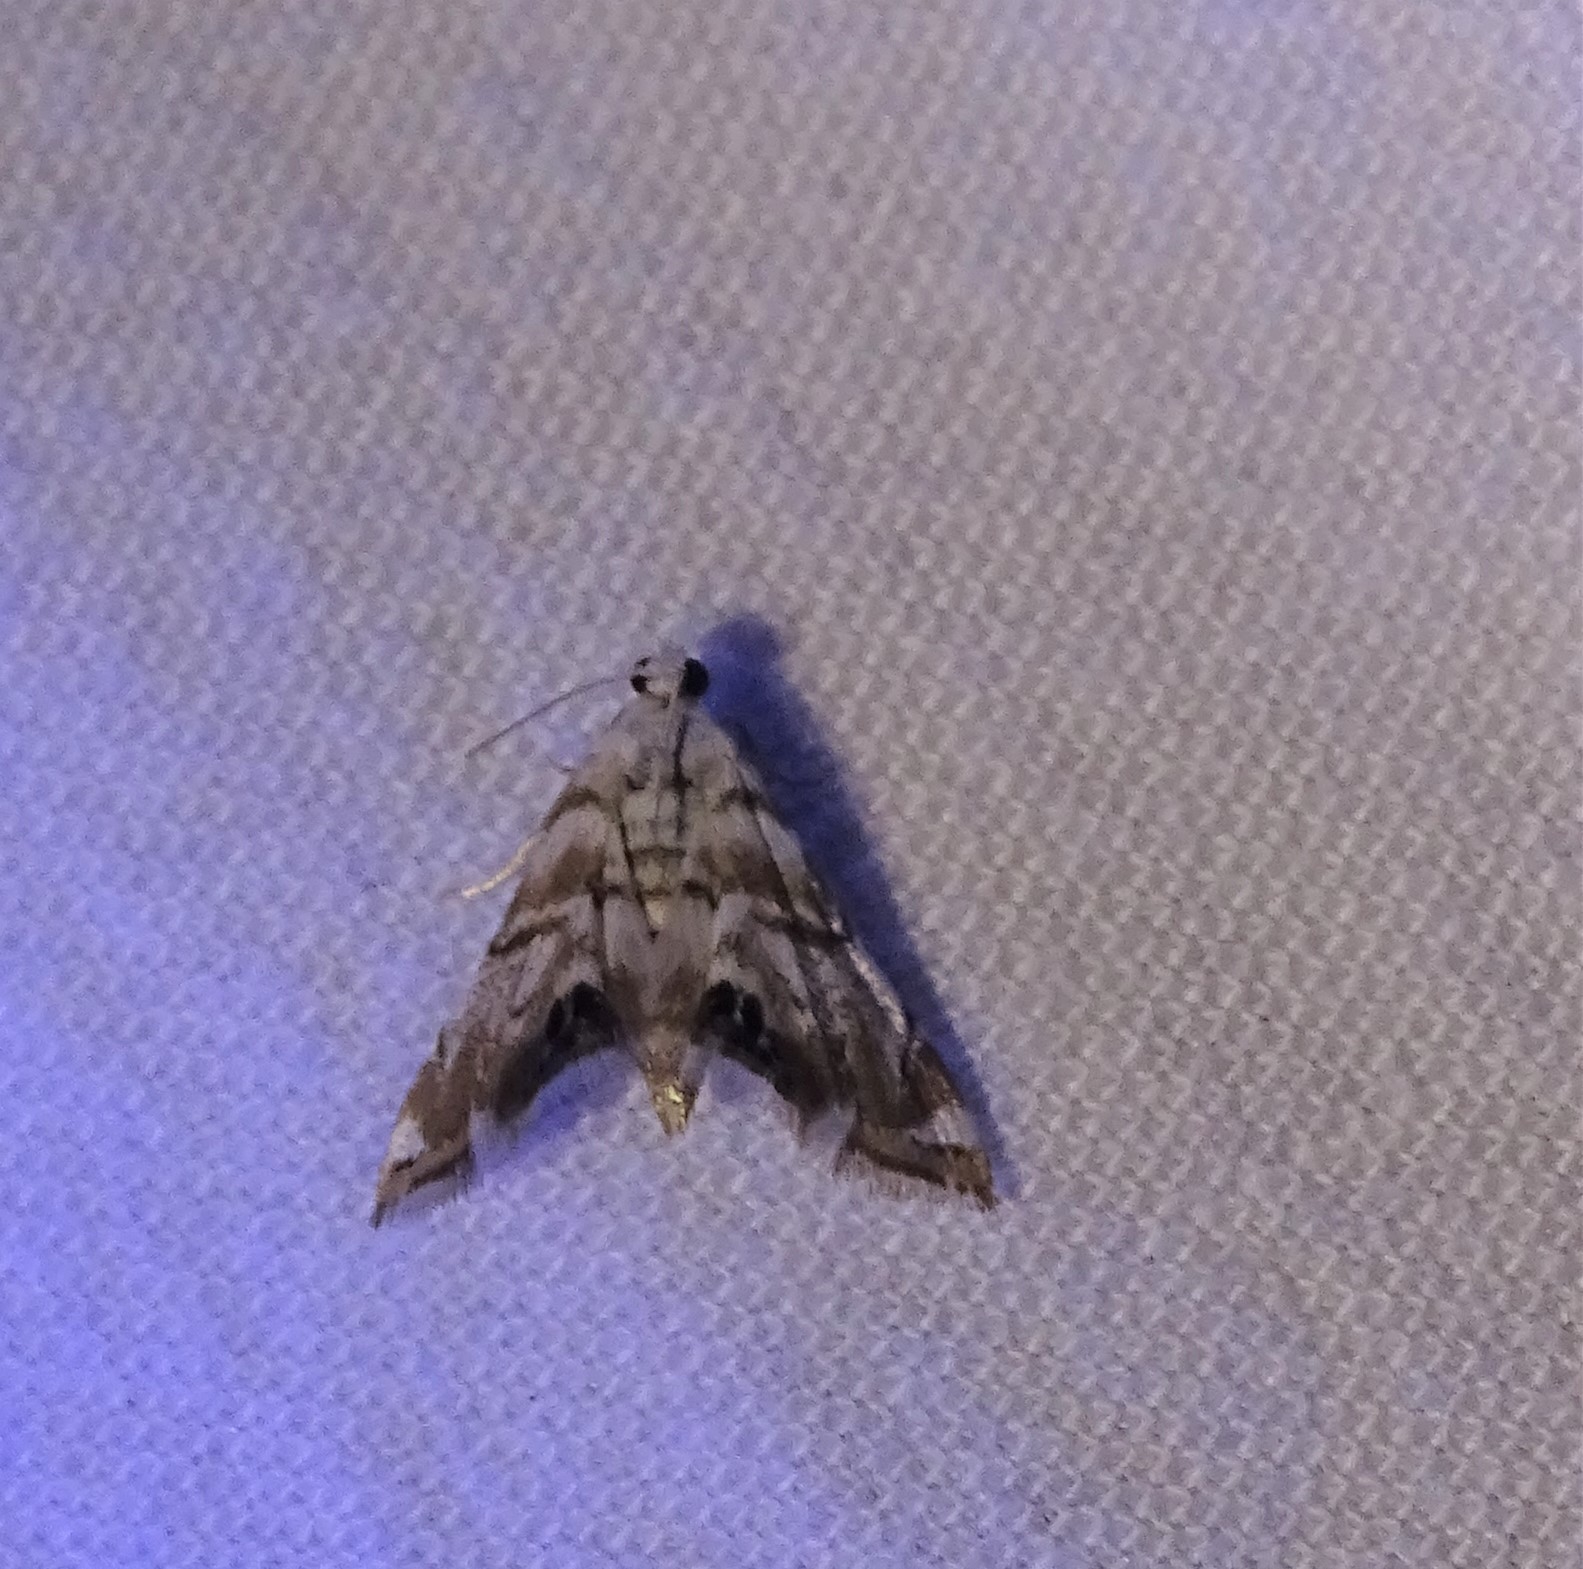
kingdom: Animalia
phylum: Arthropoda
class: Insecta
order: Lepidoptera
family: Crambidae
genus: Eoparargyractis
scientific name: Eoparargyractis irroratalis
